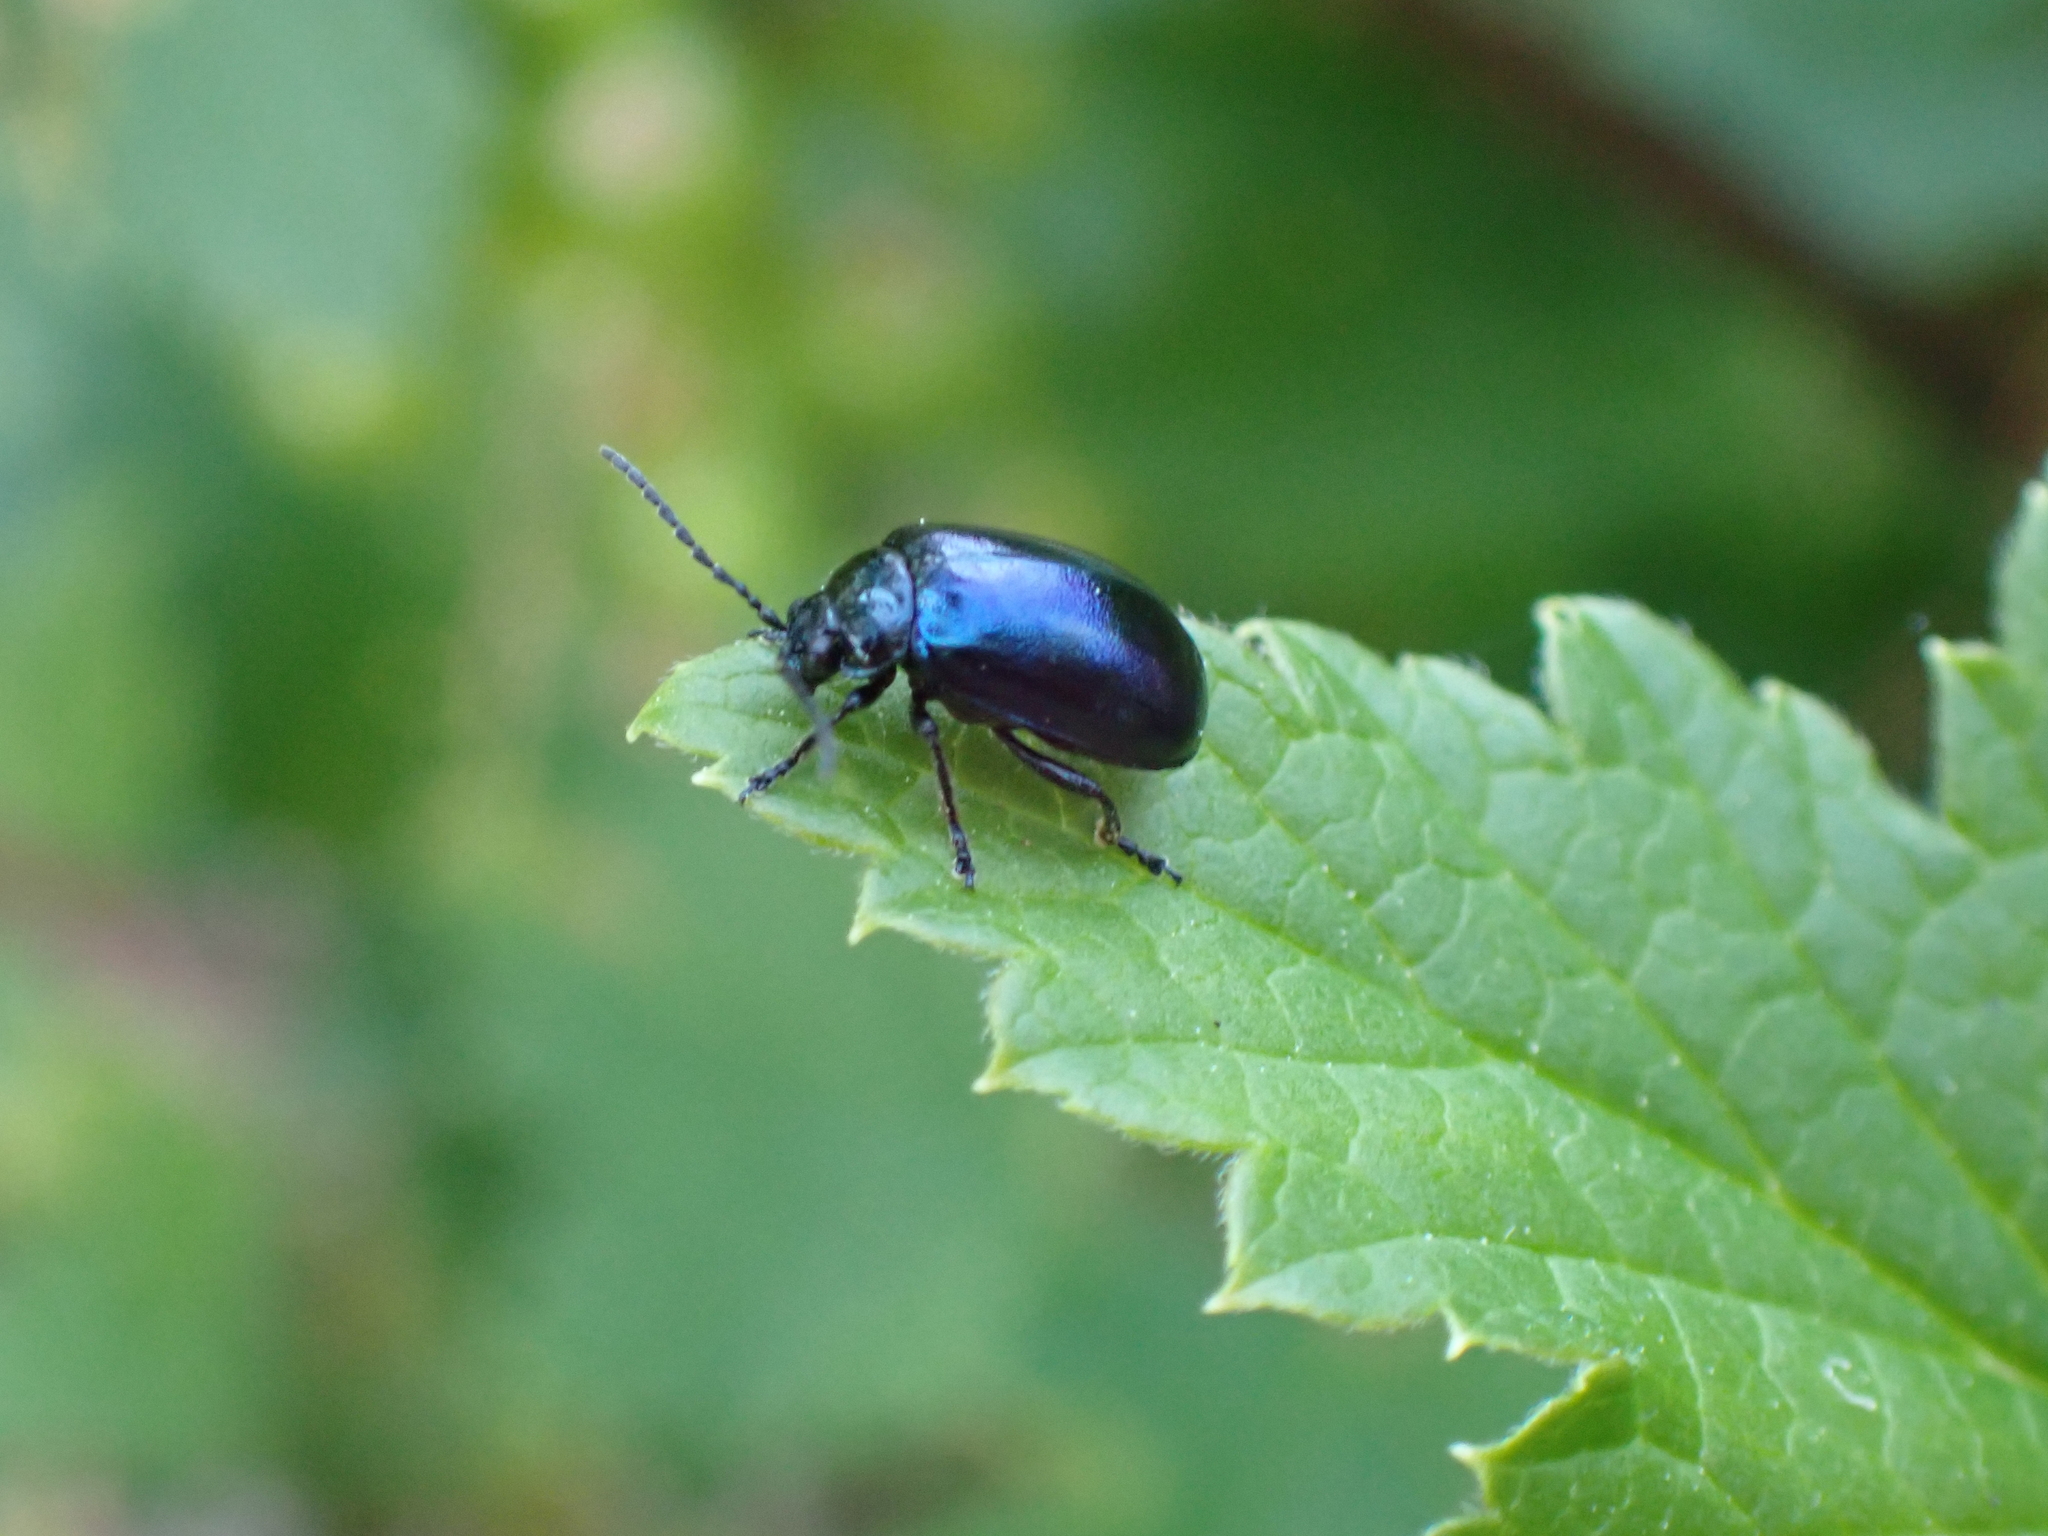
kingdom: Animalia
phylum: Arthropoda
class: Insecta
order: Coleoptera
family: Chrysomelidae
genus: Agelastica
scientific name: Agelastica alni
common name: Alder leaf beetle
